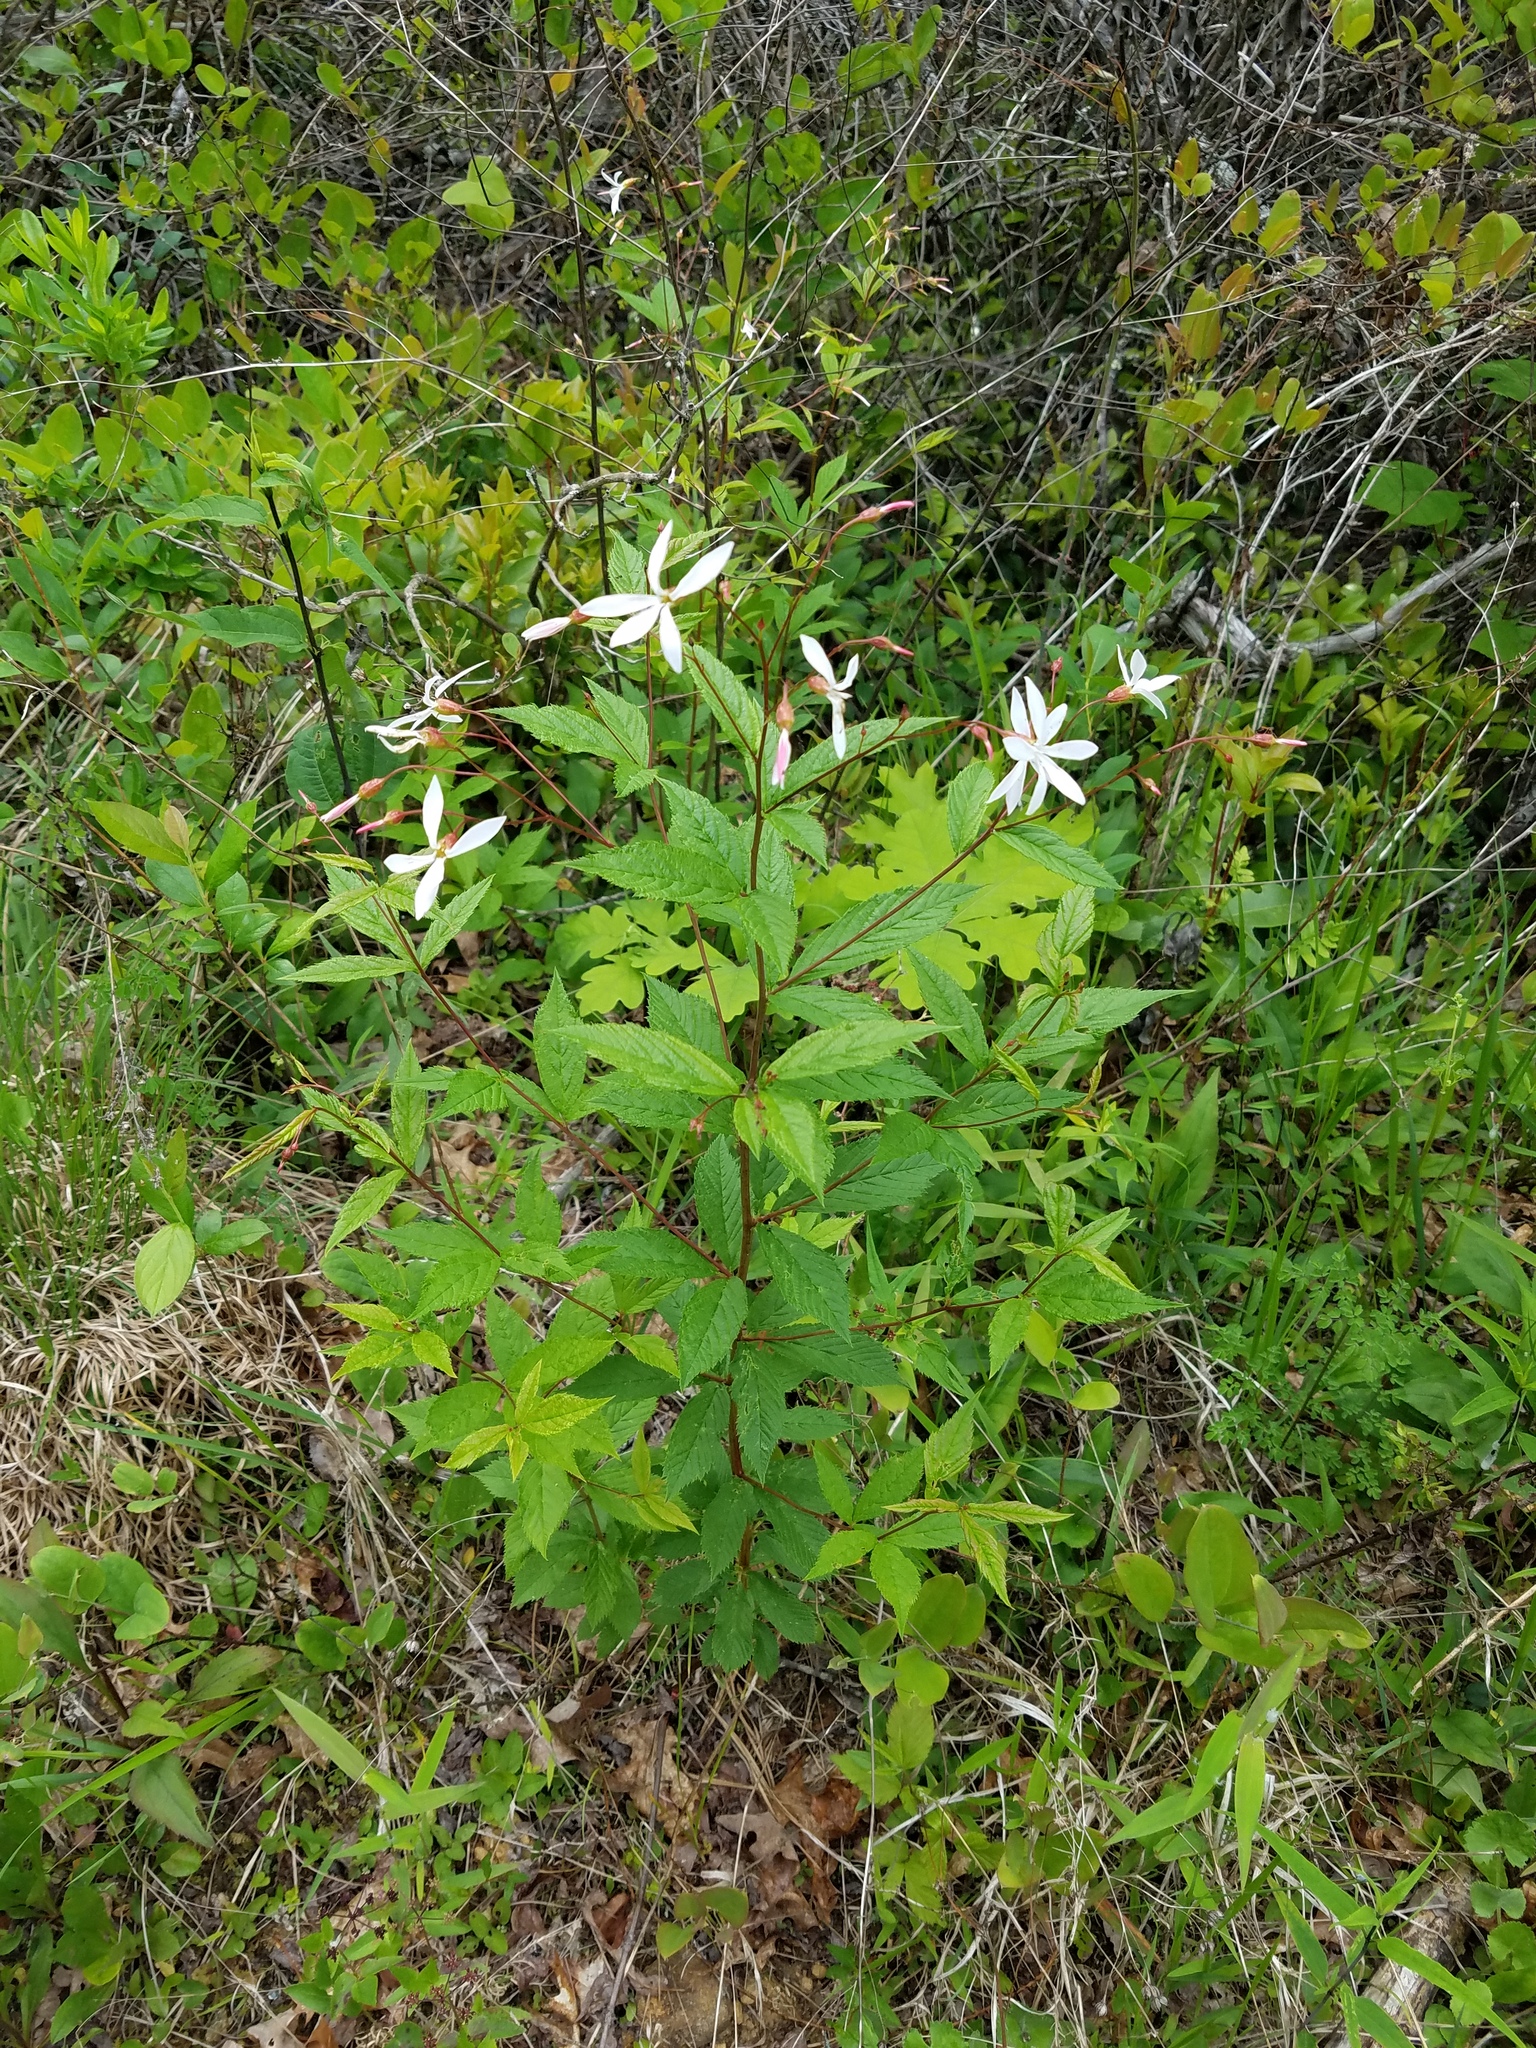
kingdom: Plantae
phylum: Tracheophyta
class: Magnoliopsida
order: Rosales
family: Rosaceae
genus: Gillenia
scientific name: Gillenia trifoliata
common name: Bowman's-root
